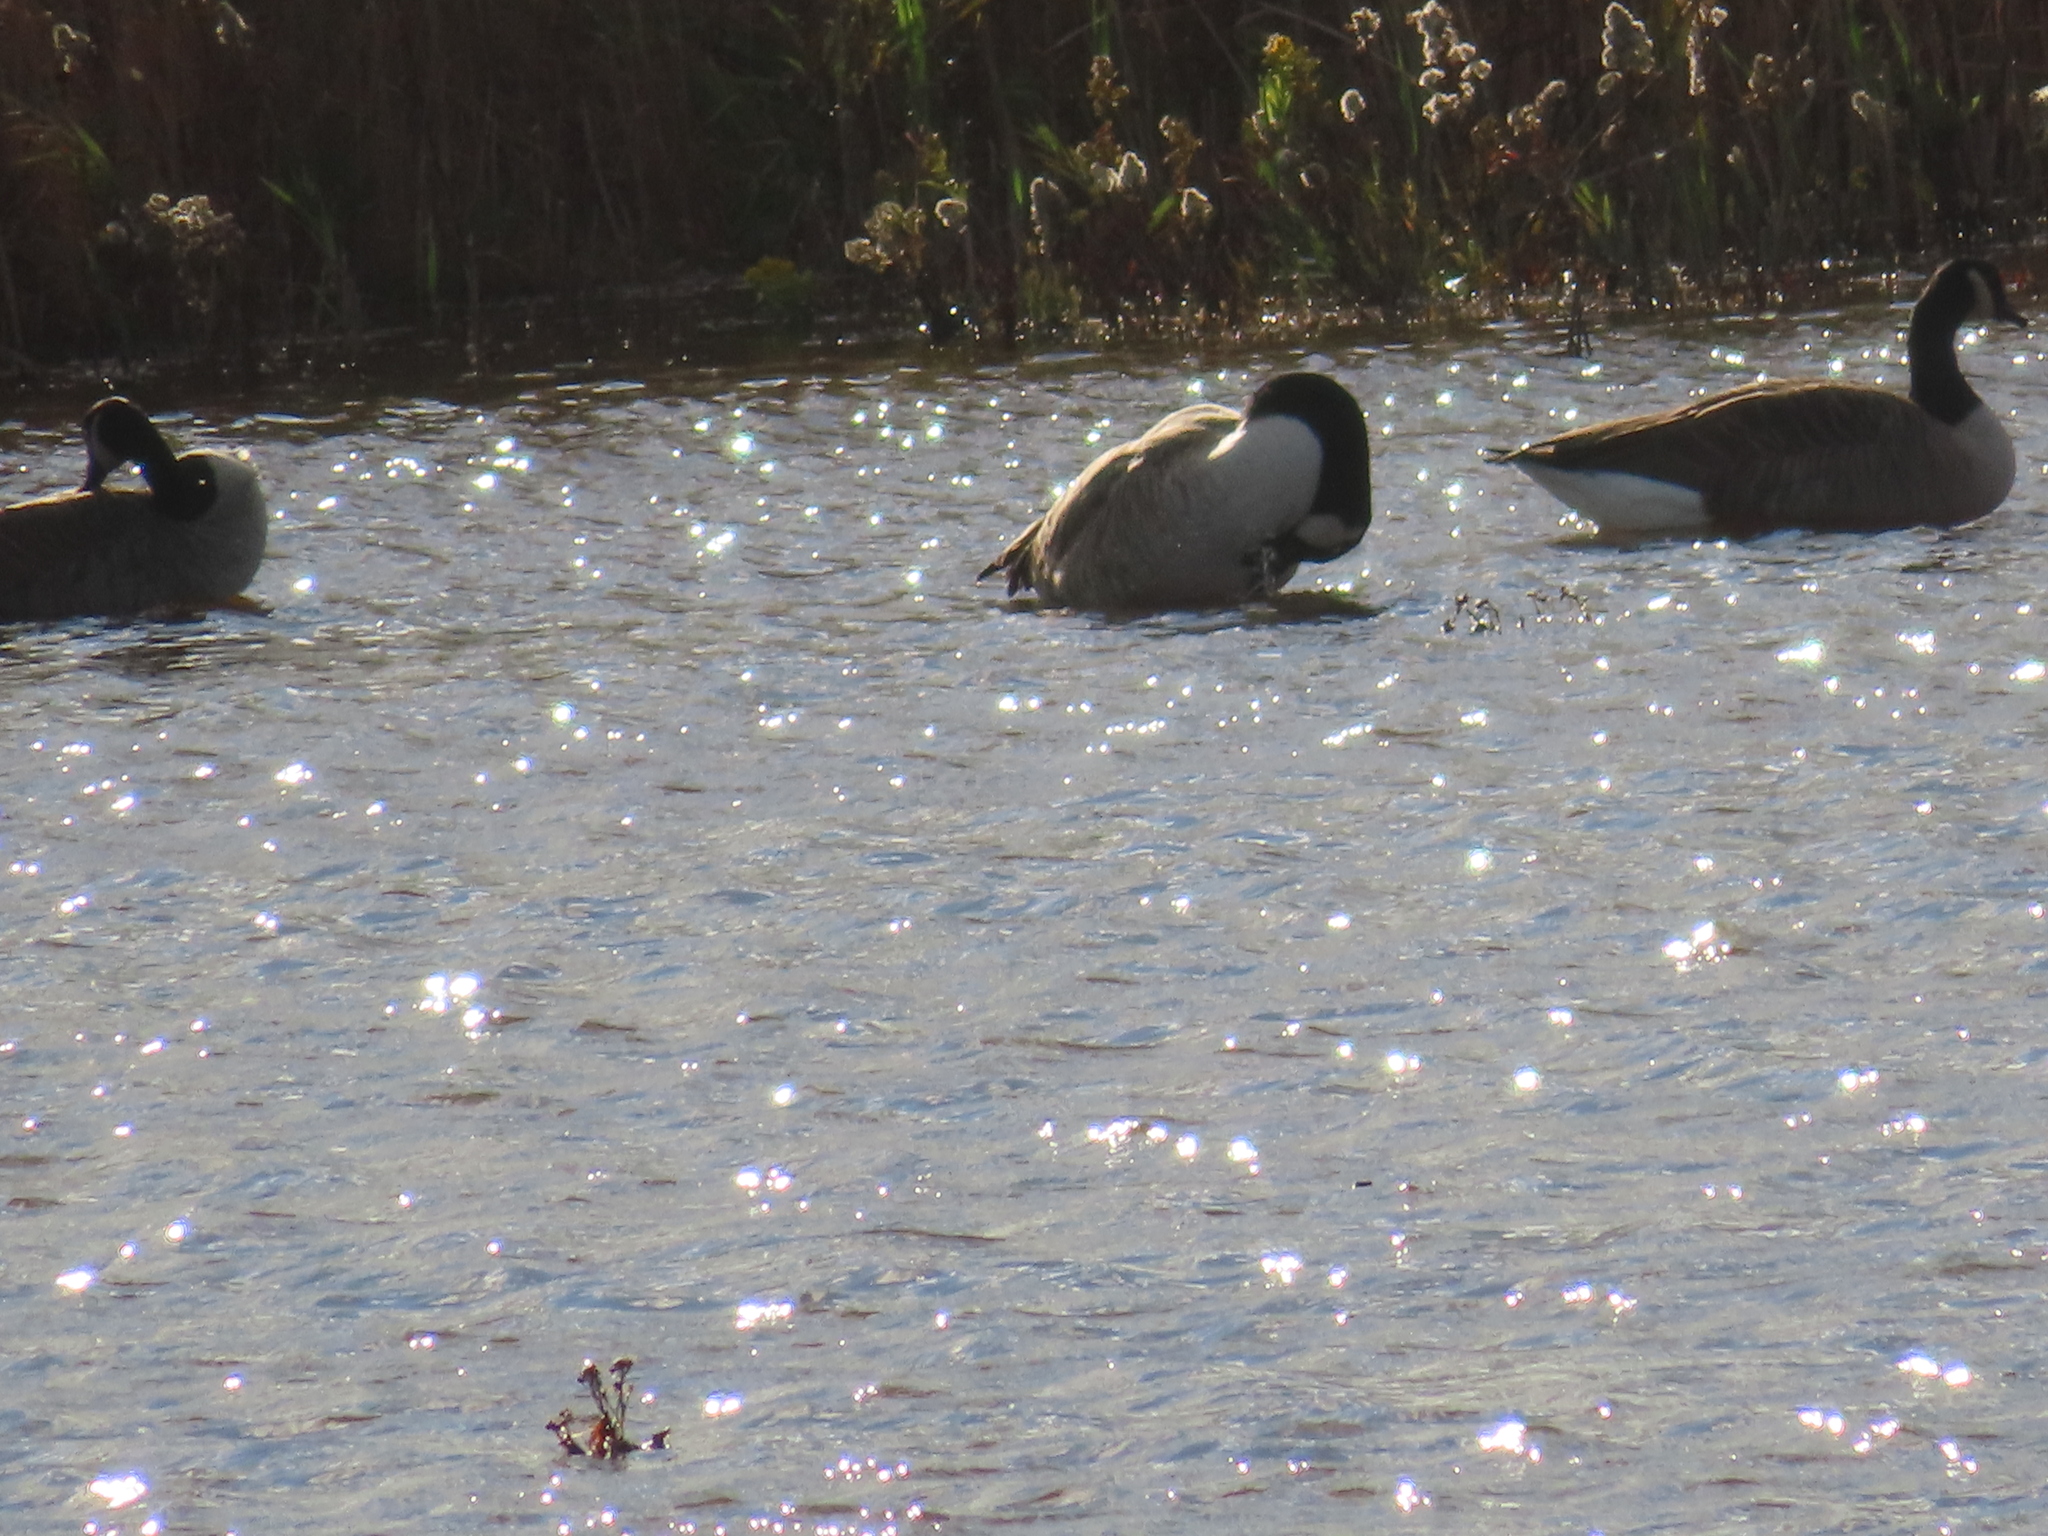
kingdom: Animalia
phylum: Chordata
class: Aves
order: Anseriformes
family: Anatidae
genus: Branta
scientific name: Branta canadensis
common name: Canada goose
